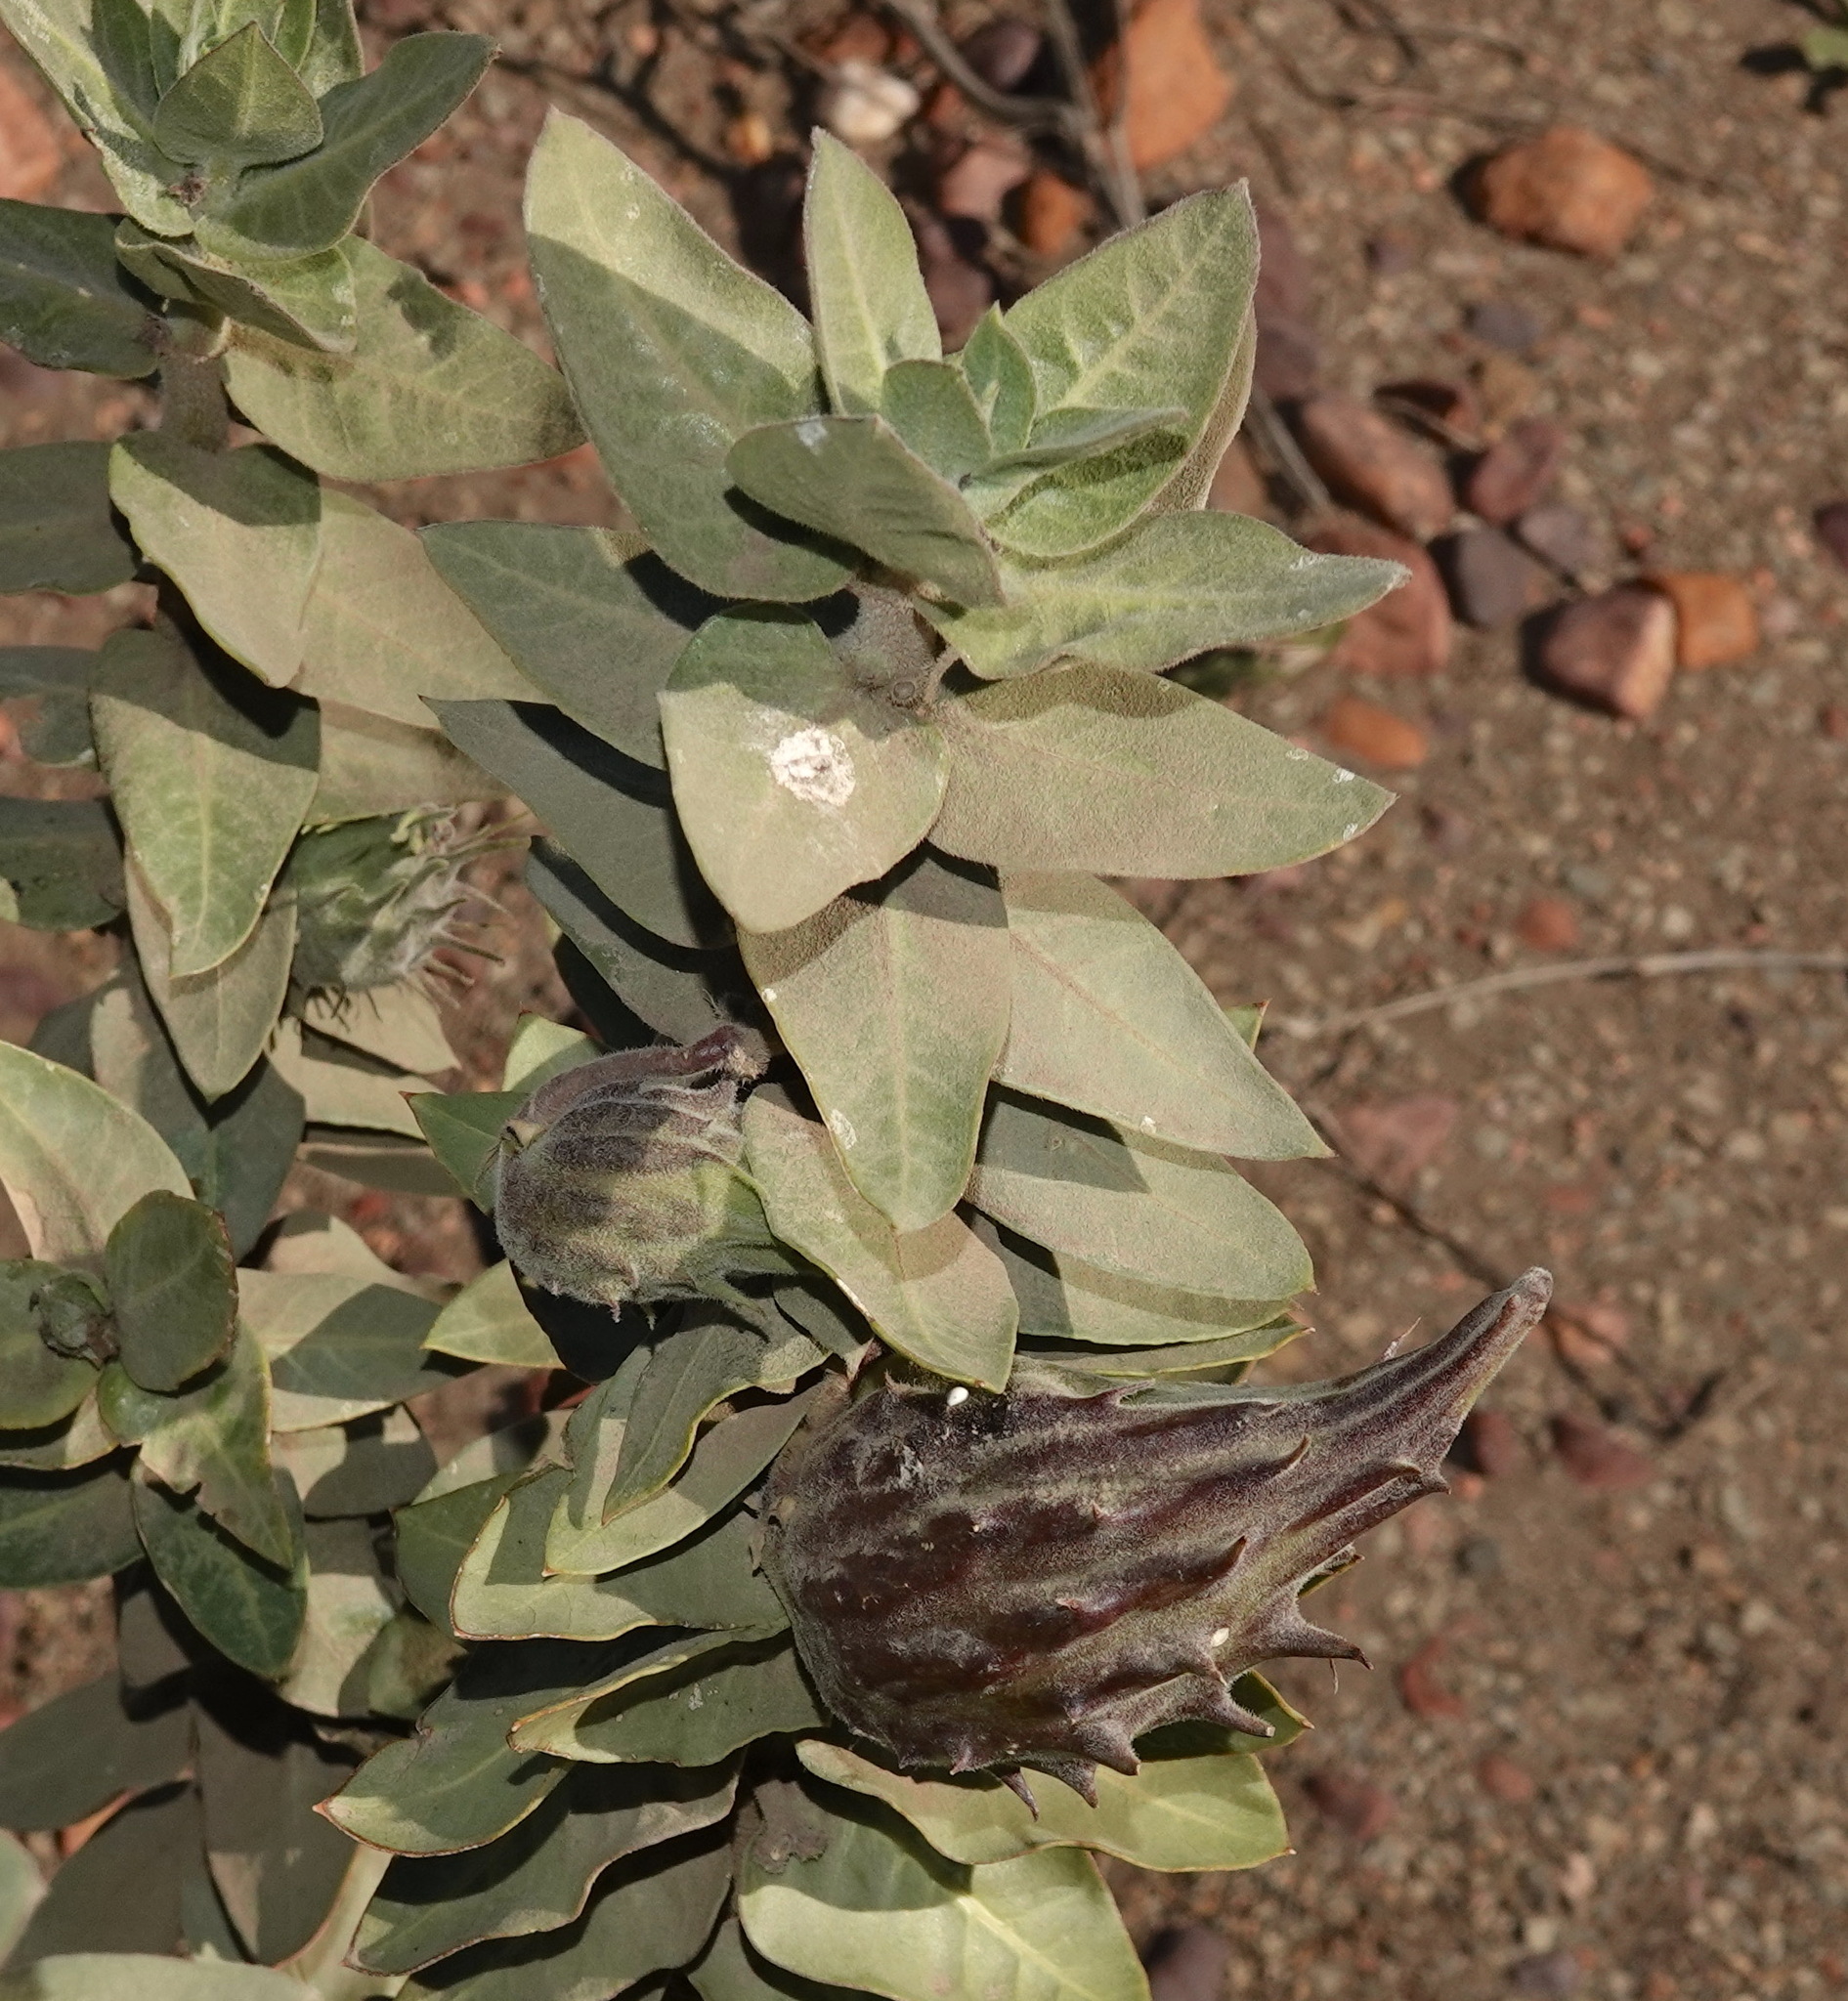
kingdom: Plantae
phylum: Tracheophyta
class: Magnoliopsida
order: Gentianales
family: Apocynaceae
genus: Gomphocarpus
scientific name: Gomphocarpus cancellatus
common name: Wild cotton
